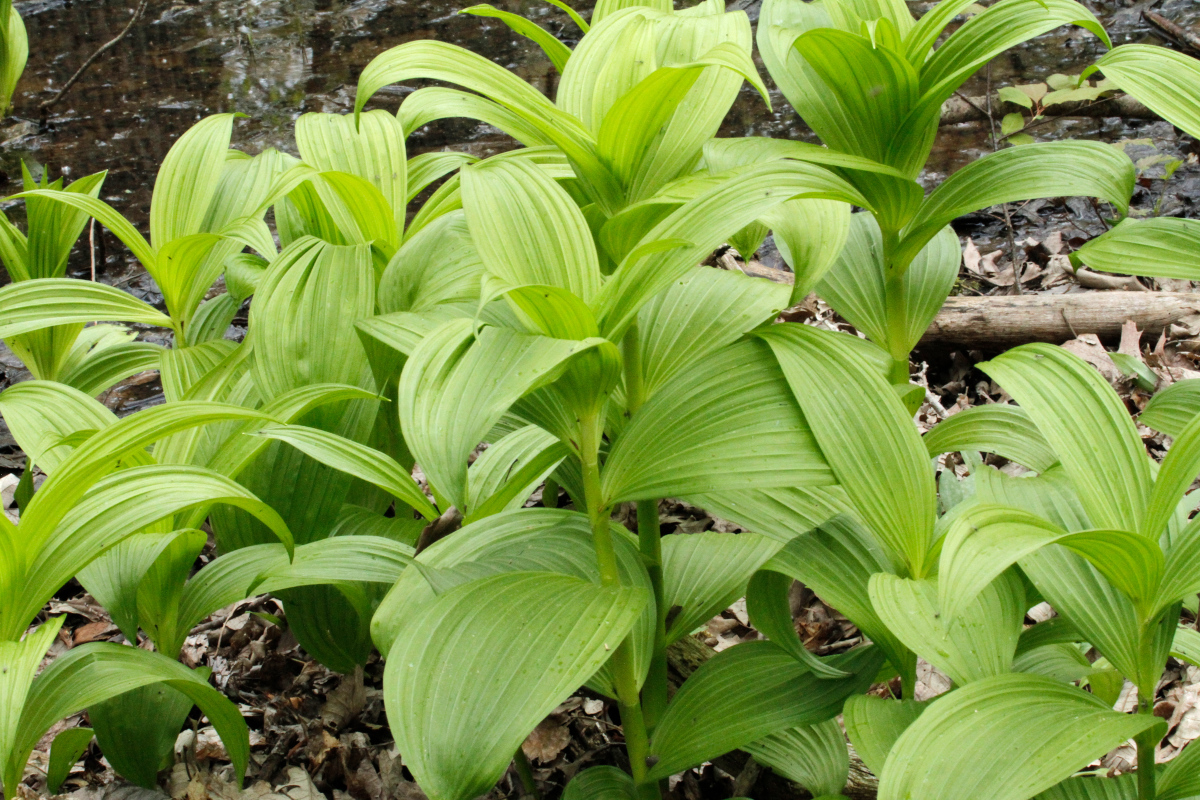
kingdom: Plantae
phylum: Tracheophyta
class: Liliopsida
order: Liliales
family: Melanthiaceae
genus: Veratrum
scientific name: Veratrum viride
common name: American false hellebore
